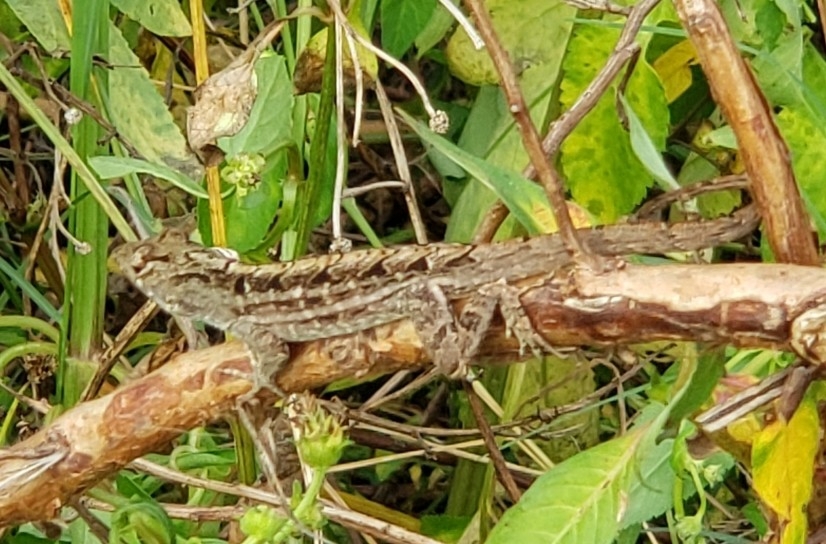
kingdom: Animalia
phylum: Chordata
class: Squamata
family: Dactyloidae
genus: Anolis
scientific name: Anolis sagrei
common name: Brown anole
